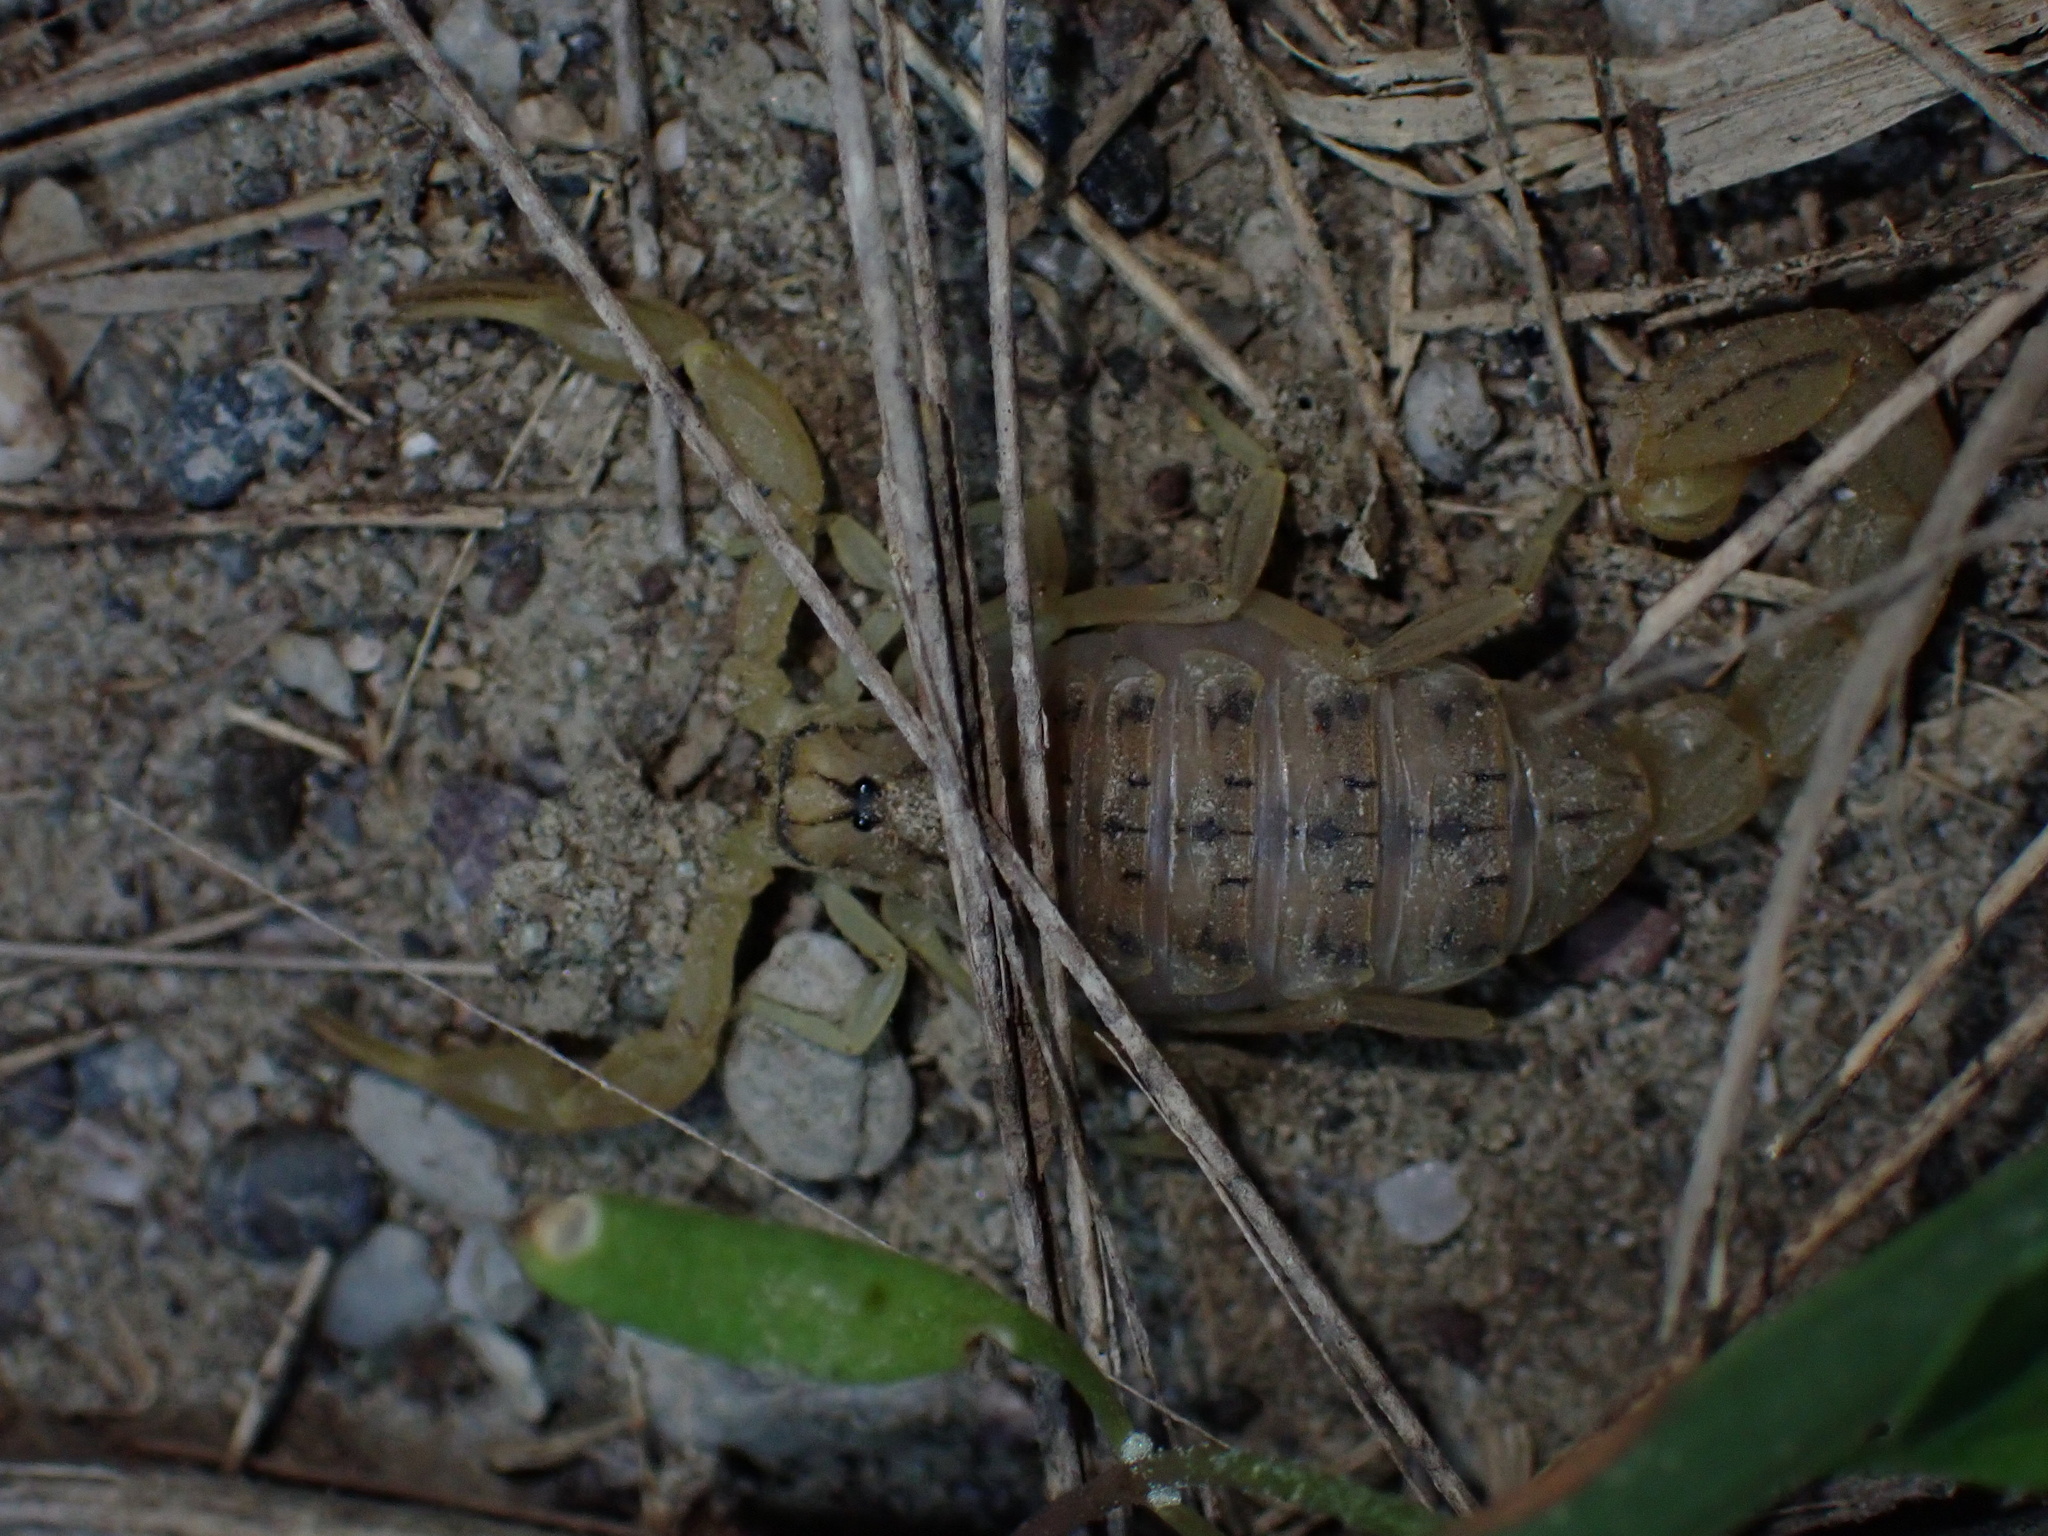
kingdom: Animalia
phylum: Arthropoda
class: Arachnida
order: Scorpiones
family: Buthidae
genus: Mesobuthus
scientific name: Mesobuthus mirshamsii
